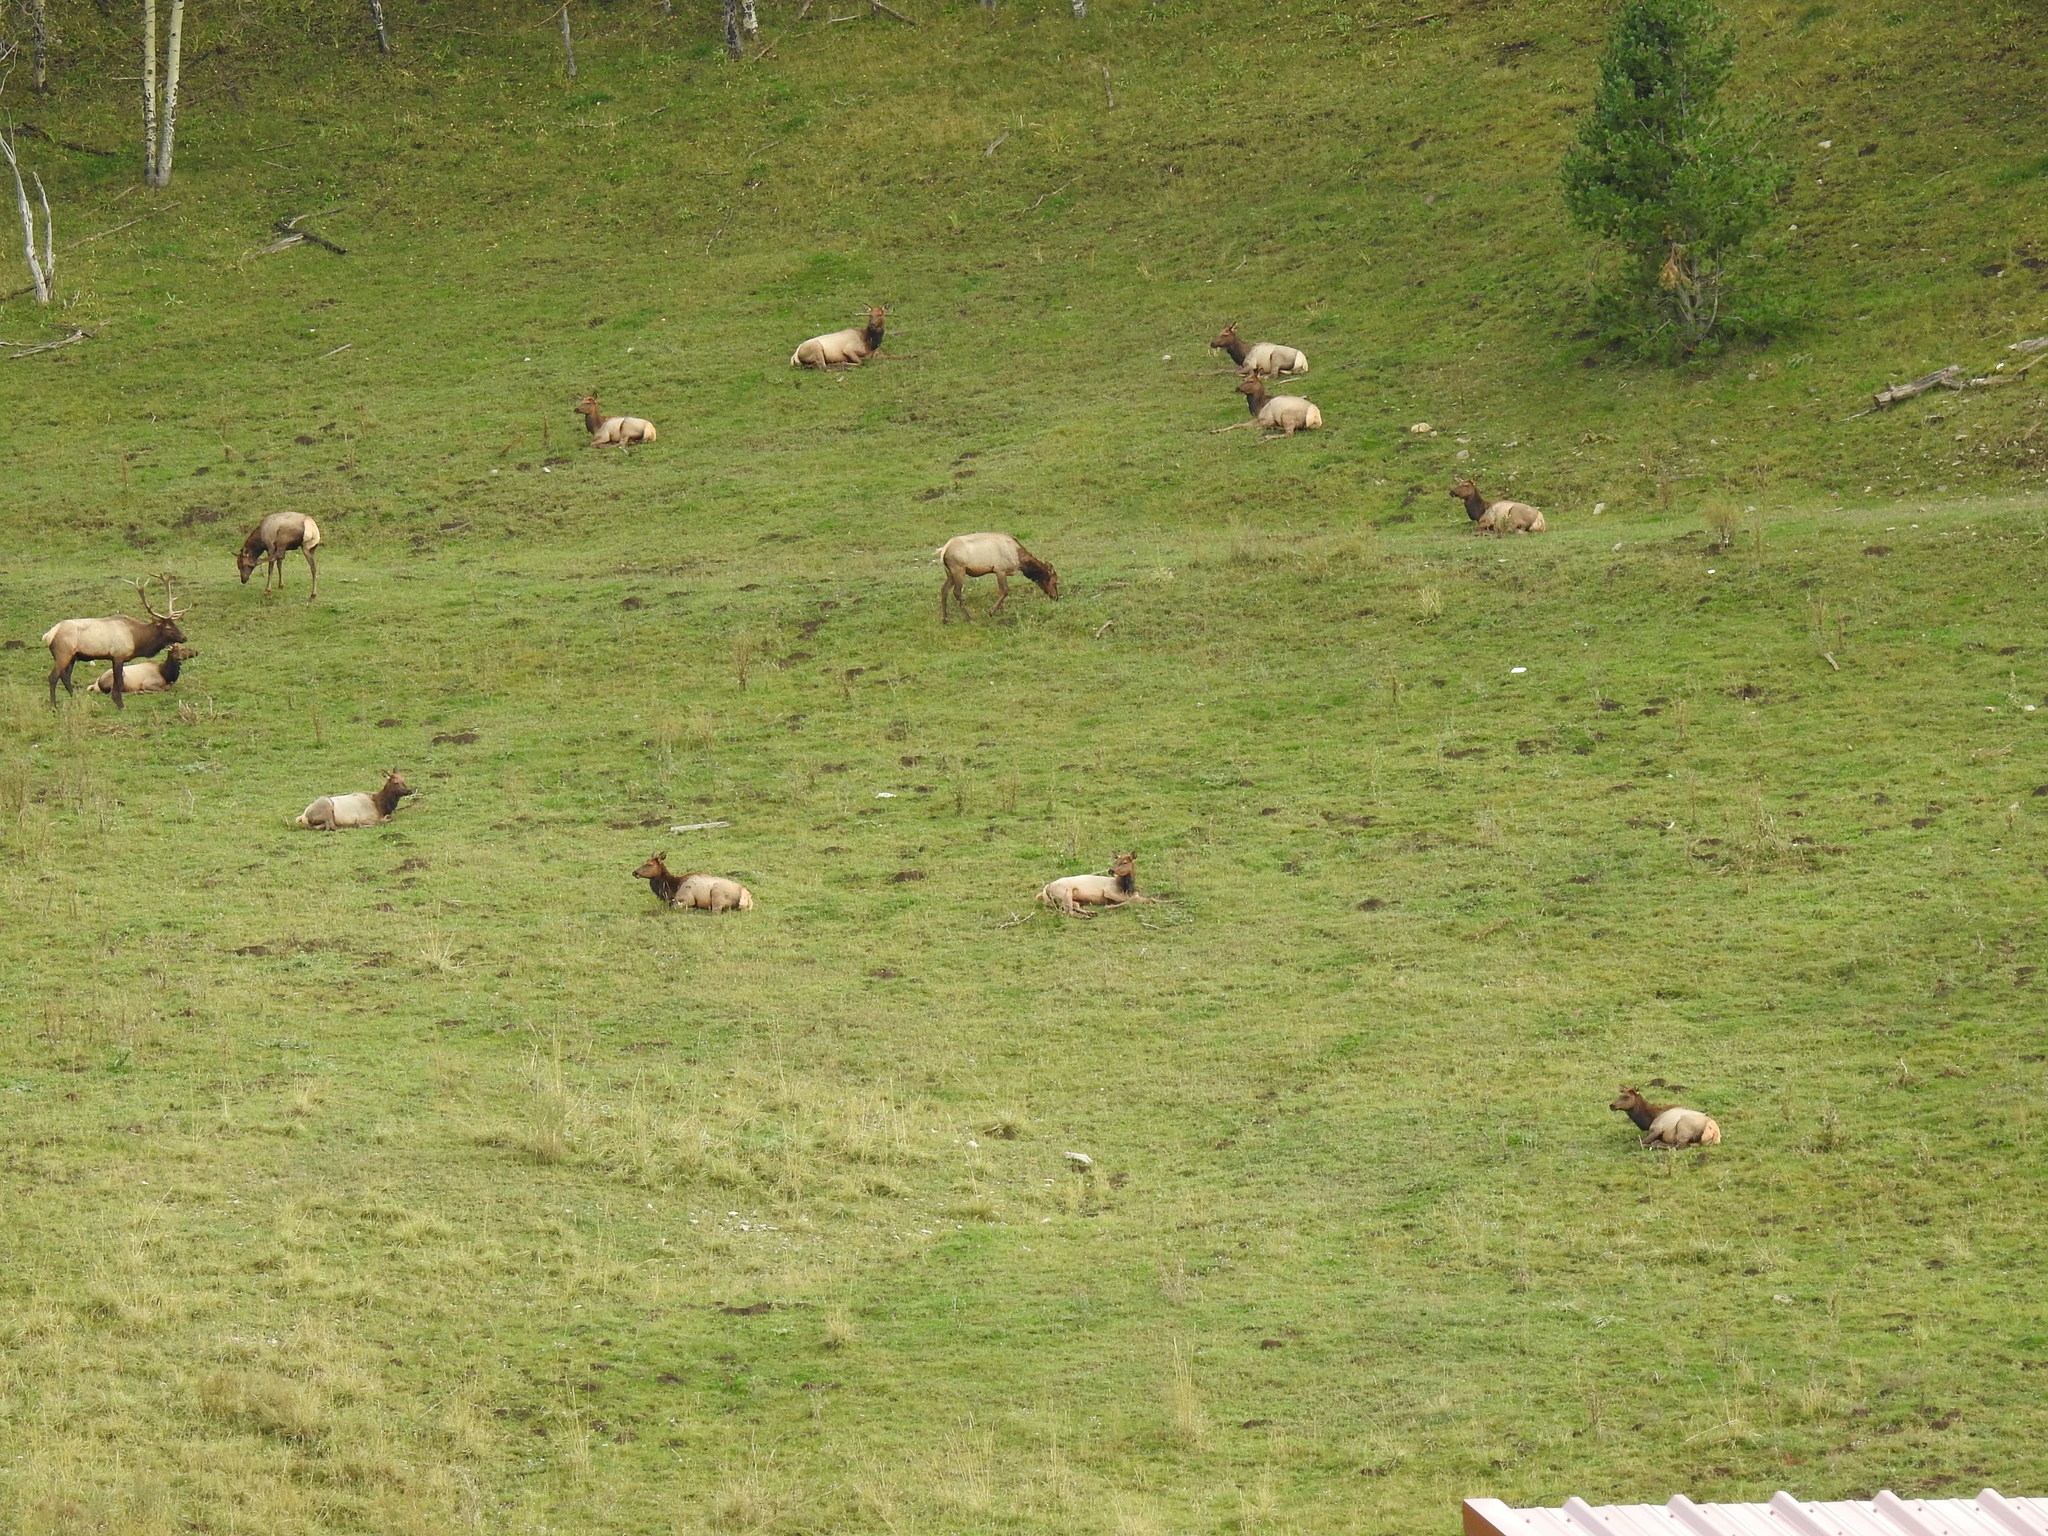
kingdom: Animalia
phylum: Chordata
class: Mammalia
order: Artiodactyla
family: Cervidae
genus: Cervus
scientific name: Cervus elaphus
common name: Red deer
